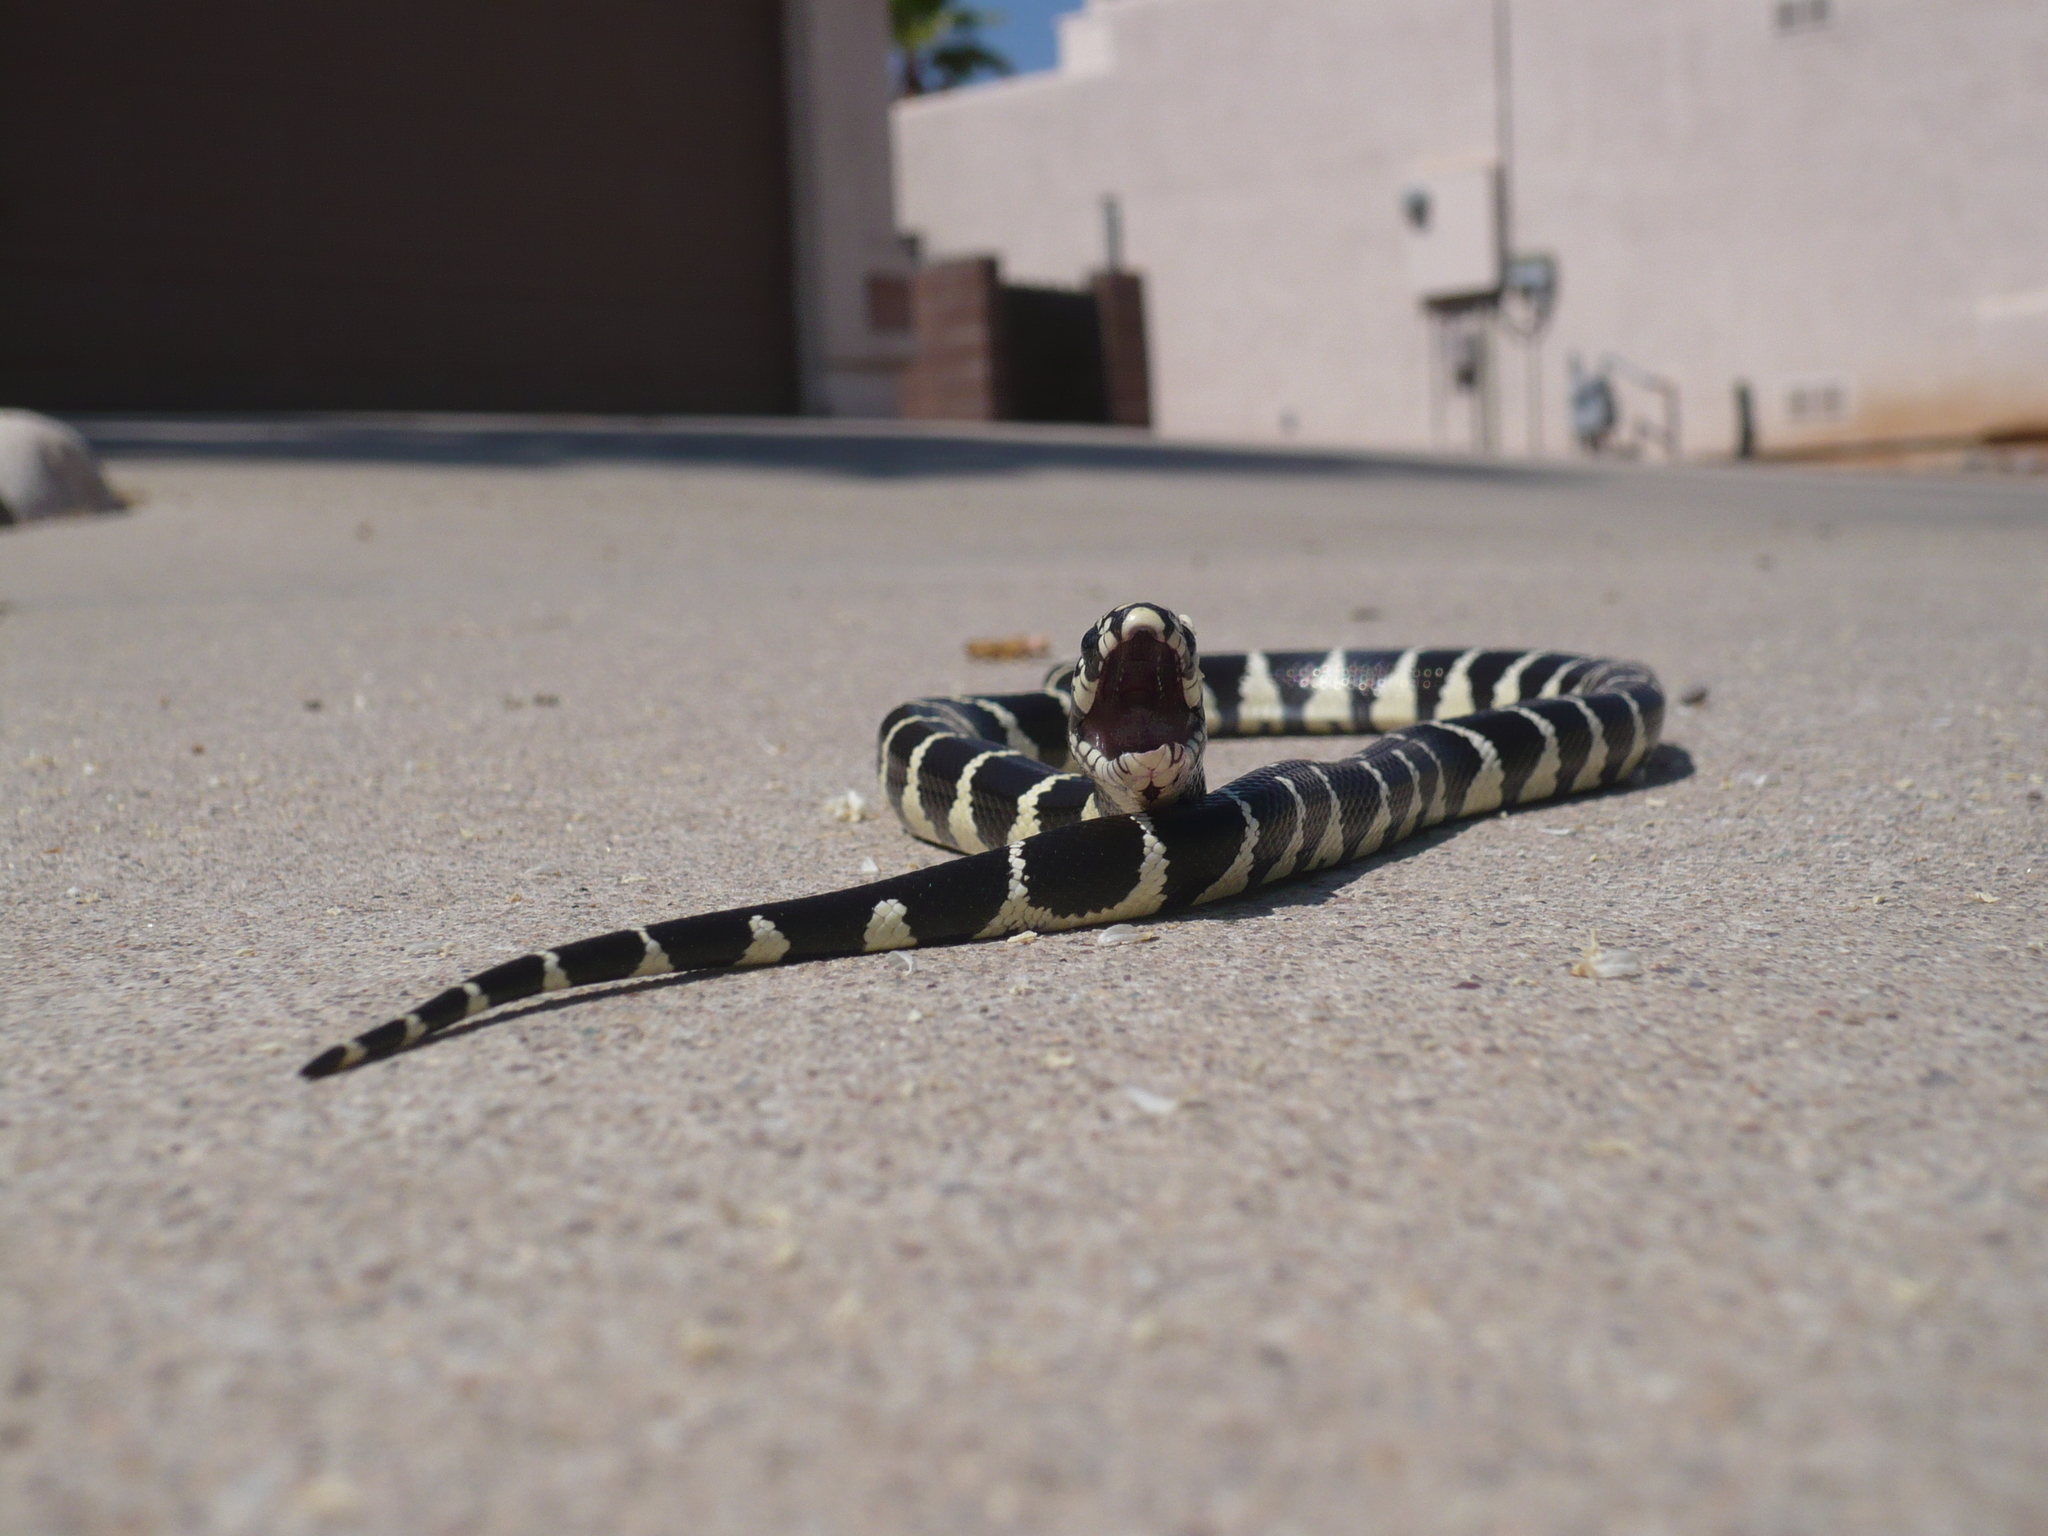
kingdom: Animalia
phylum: Chordata
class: Squamata
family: Colubridae
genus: Lampropeltis
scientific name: Lampropeltis californiae
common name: California kingsnake
